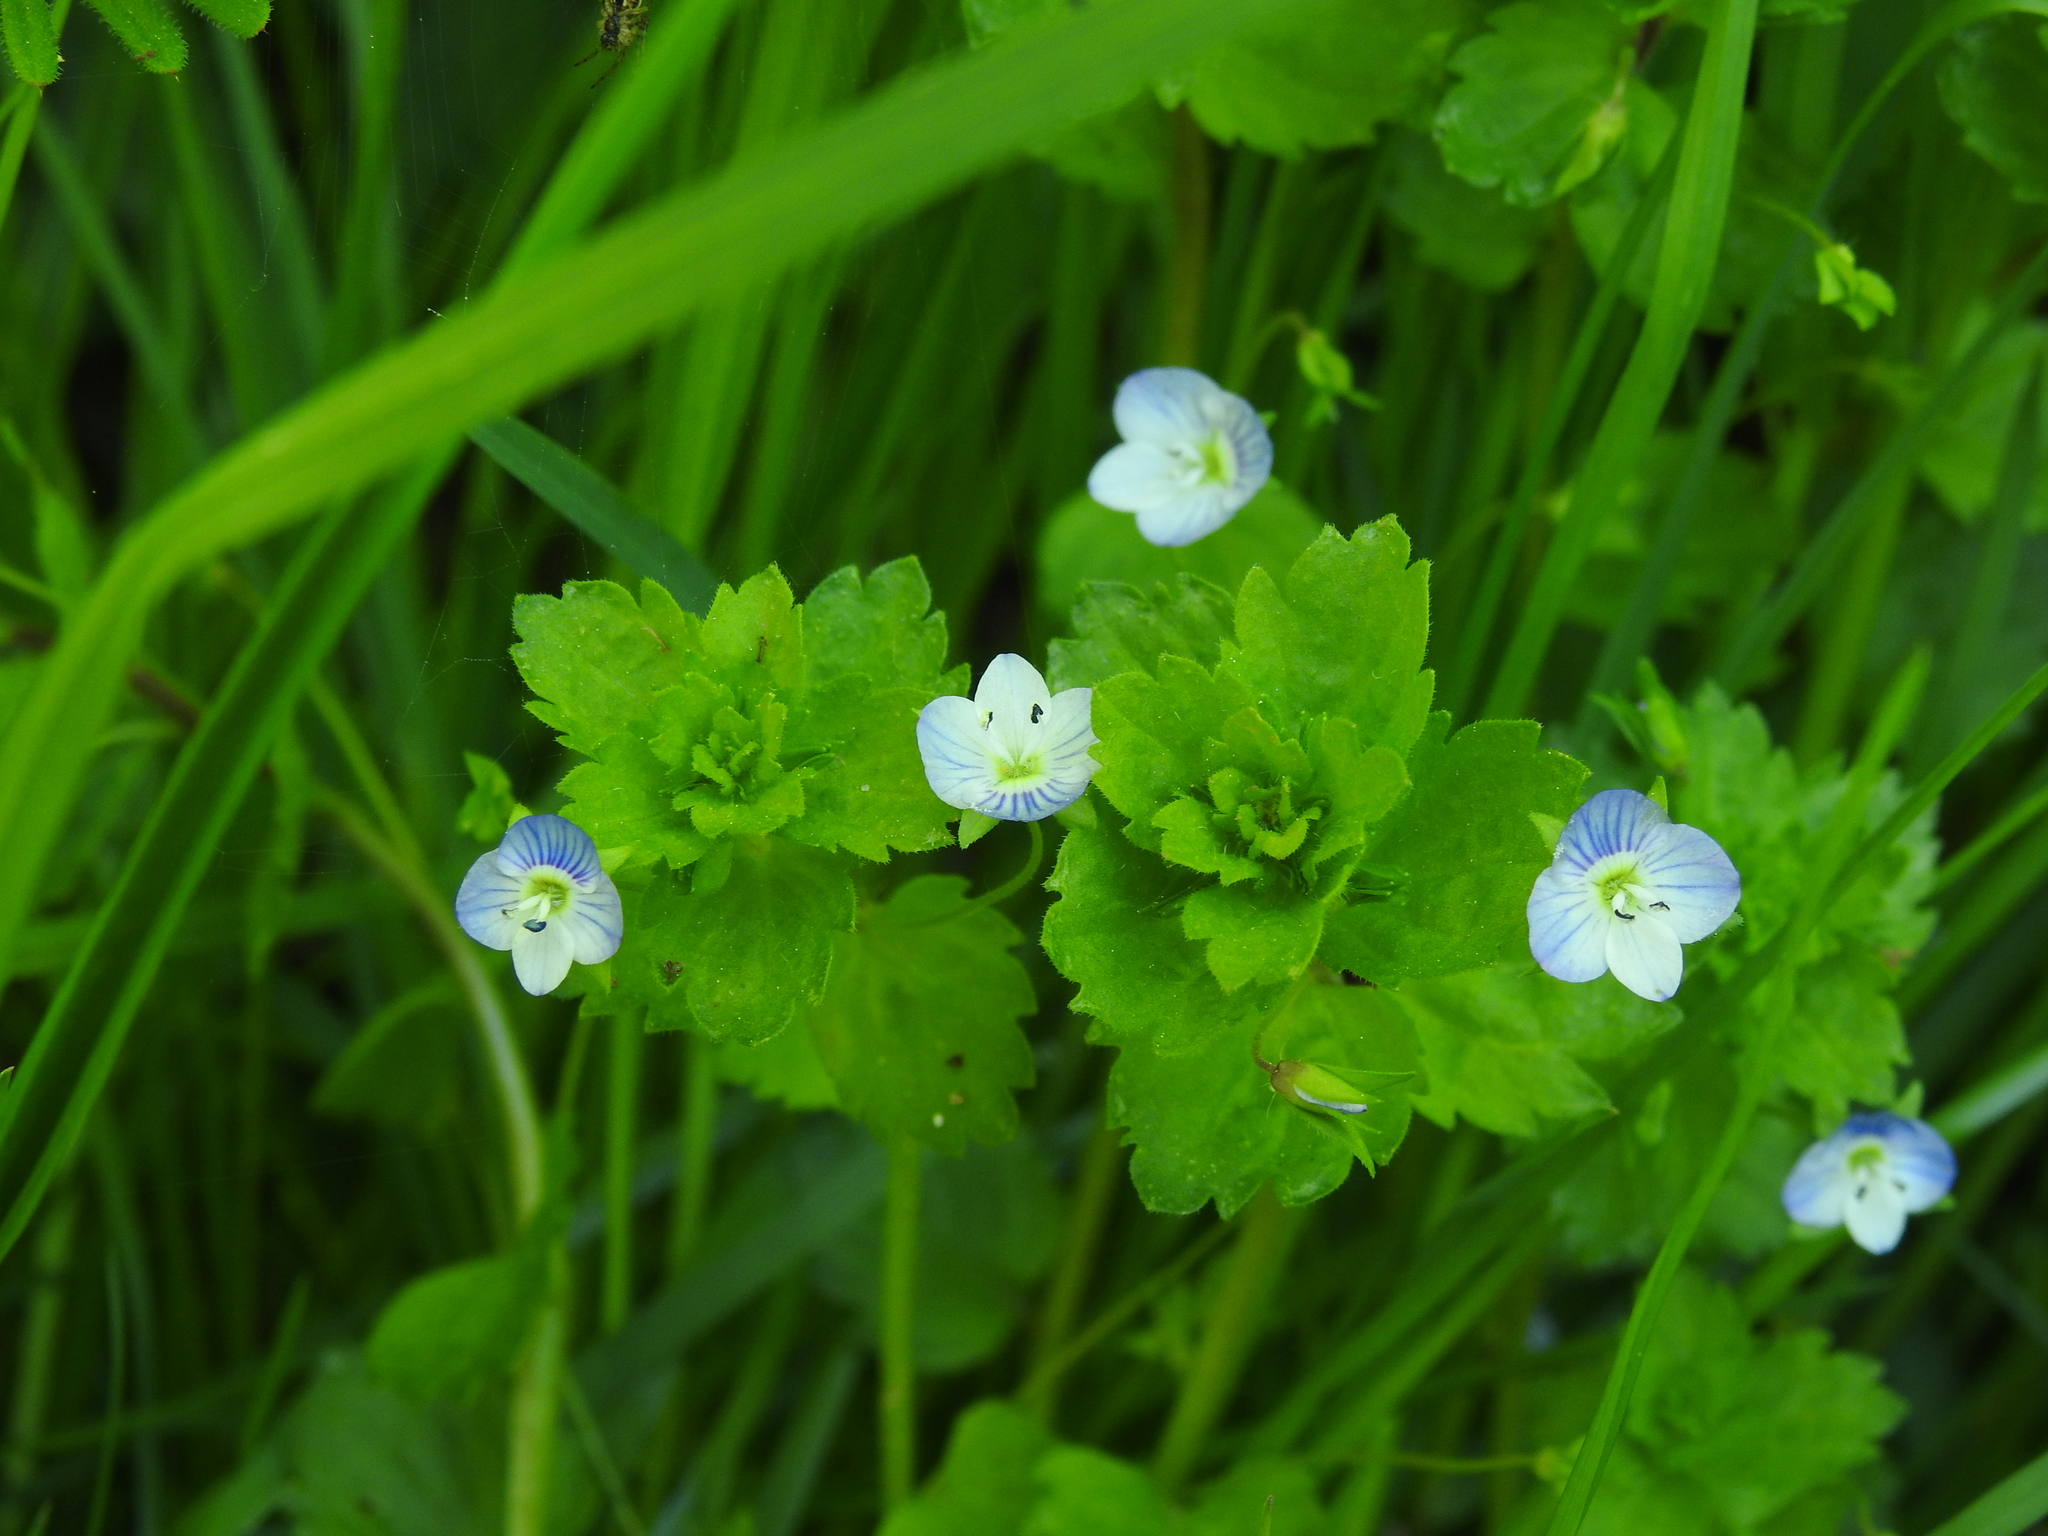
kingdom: Plantae
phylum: Tracheophyta
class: Magnoliopsida
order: Lamiales
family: Plantaginaceae
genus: Veronica
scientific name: Veronica persica
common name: Common field-speedwell
